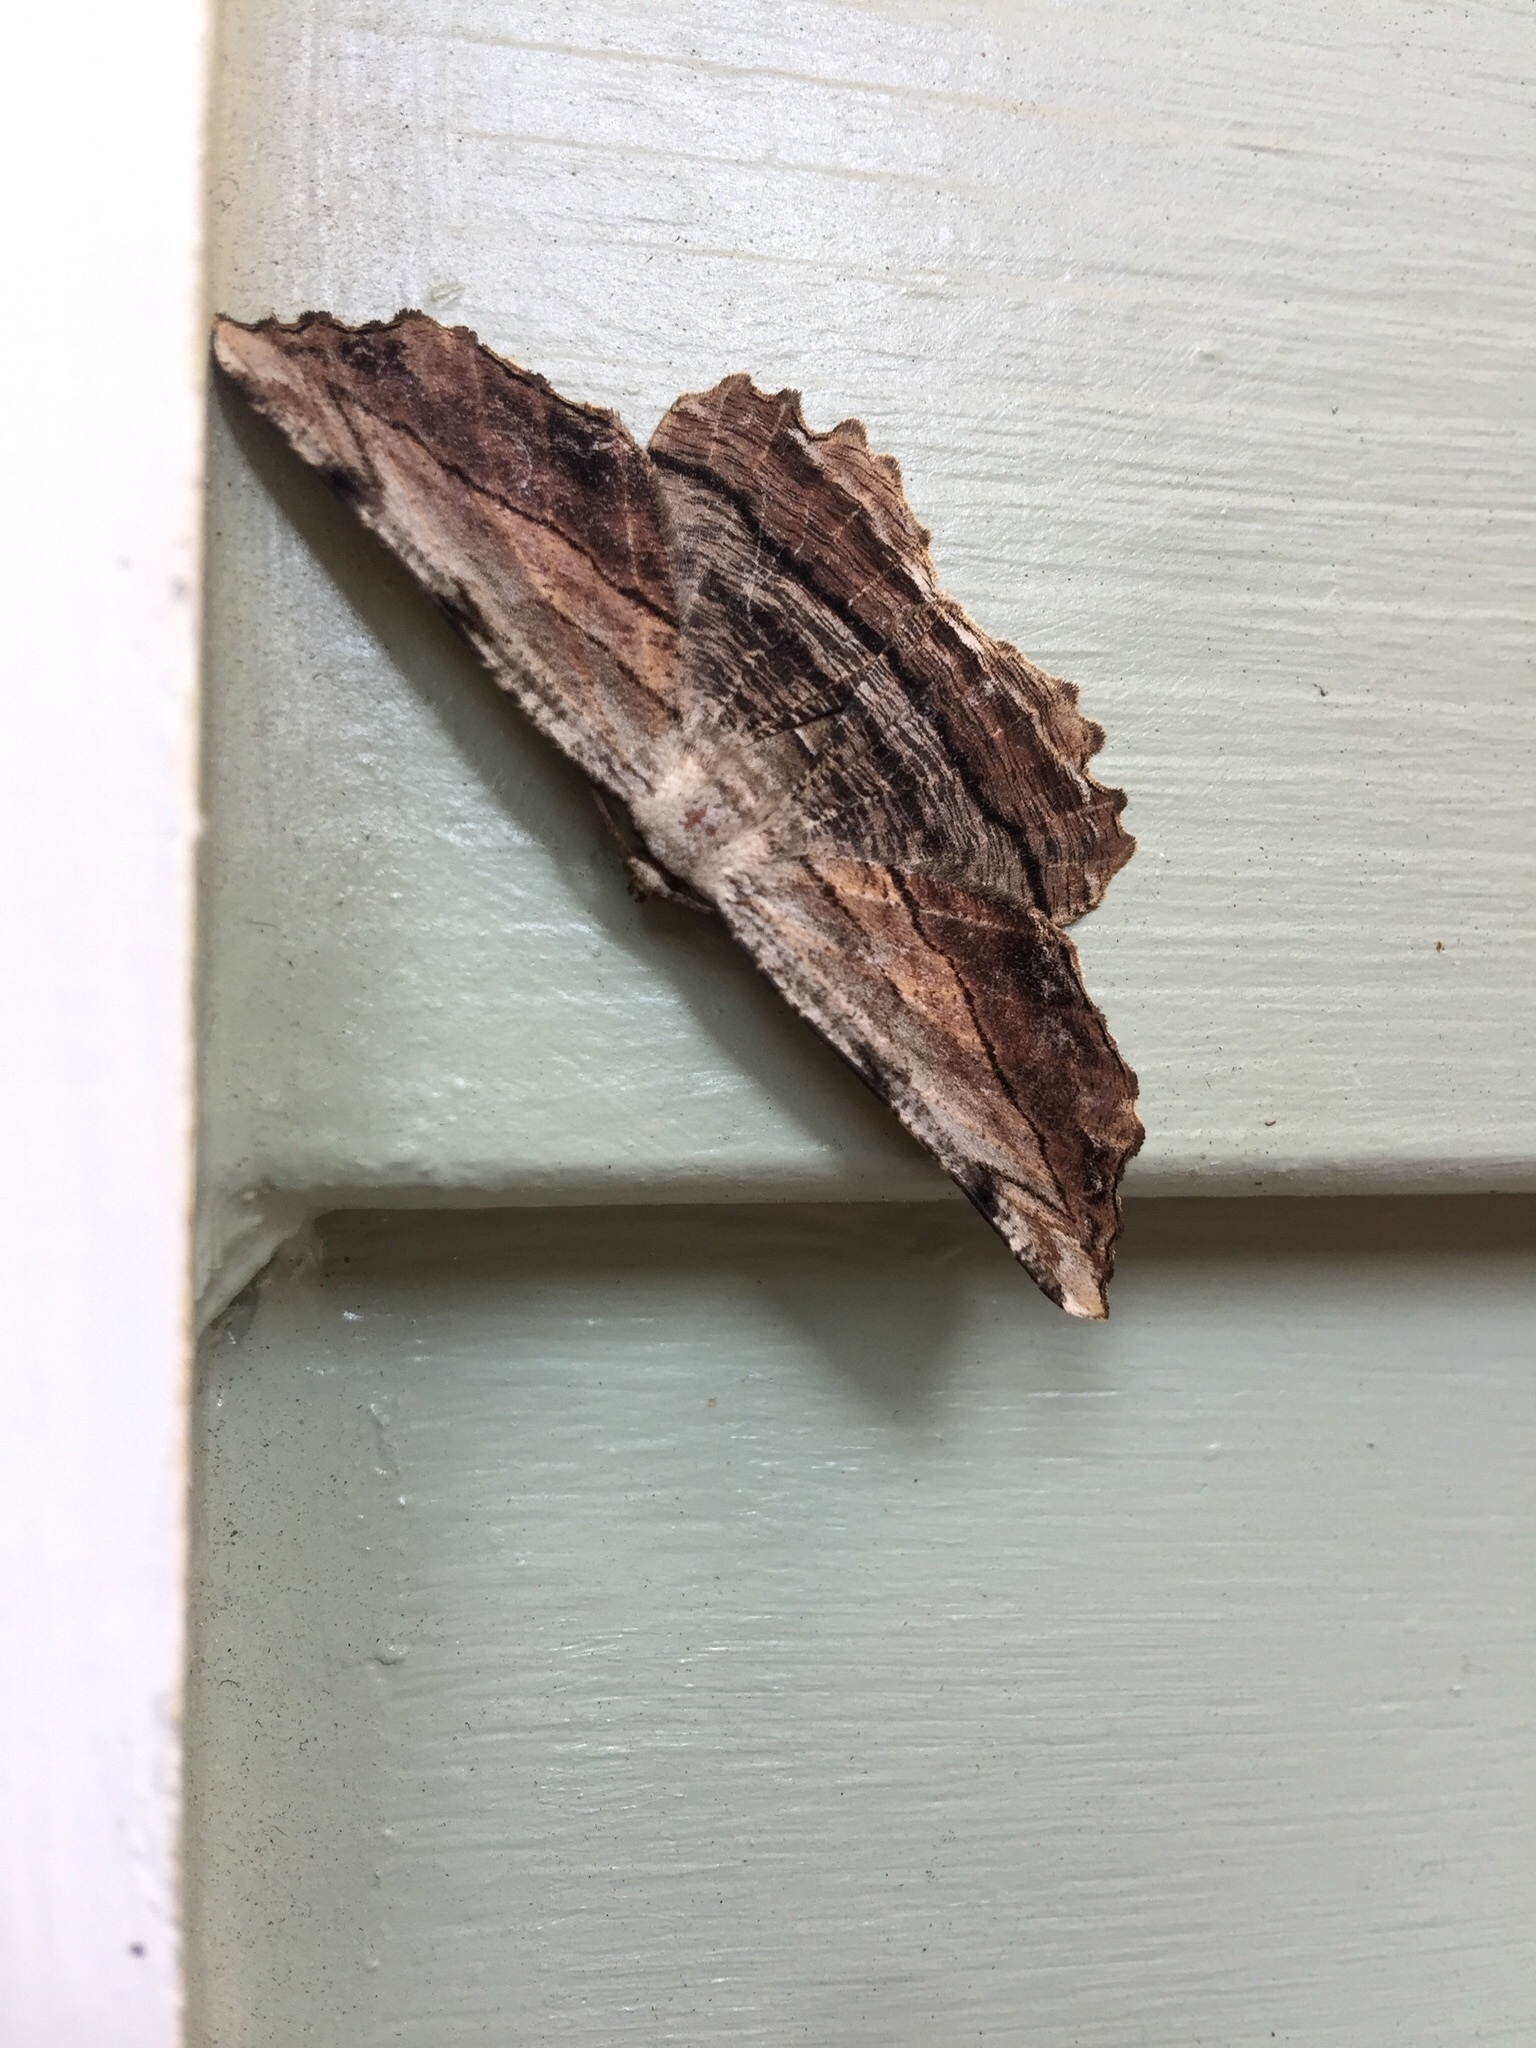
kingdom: Animalia
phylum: Arthropoda
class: Insecta
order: Lepidoptera
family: Geometridae
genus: Lytrosis
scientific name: Lytrosis unitaria
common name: Common lytrosis
